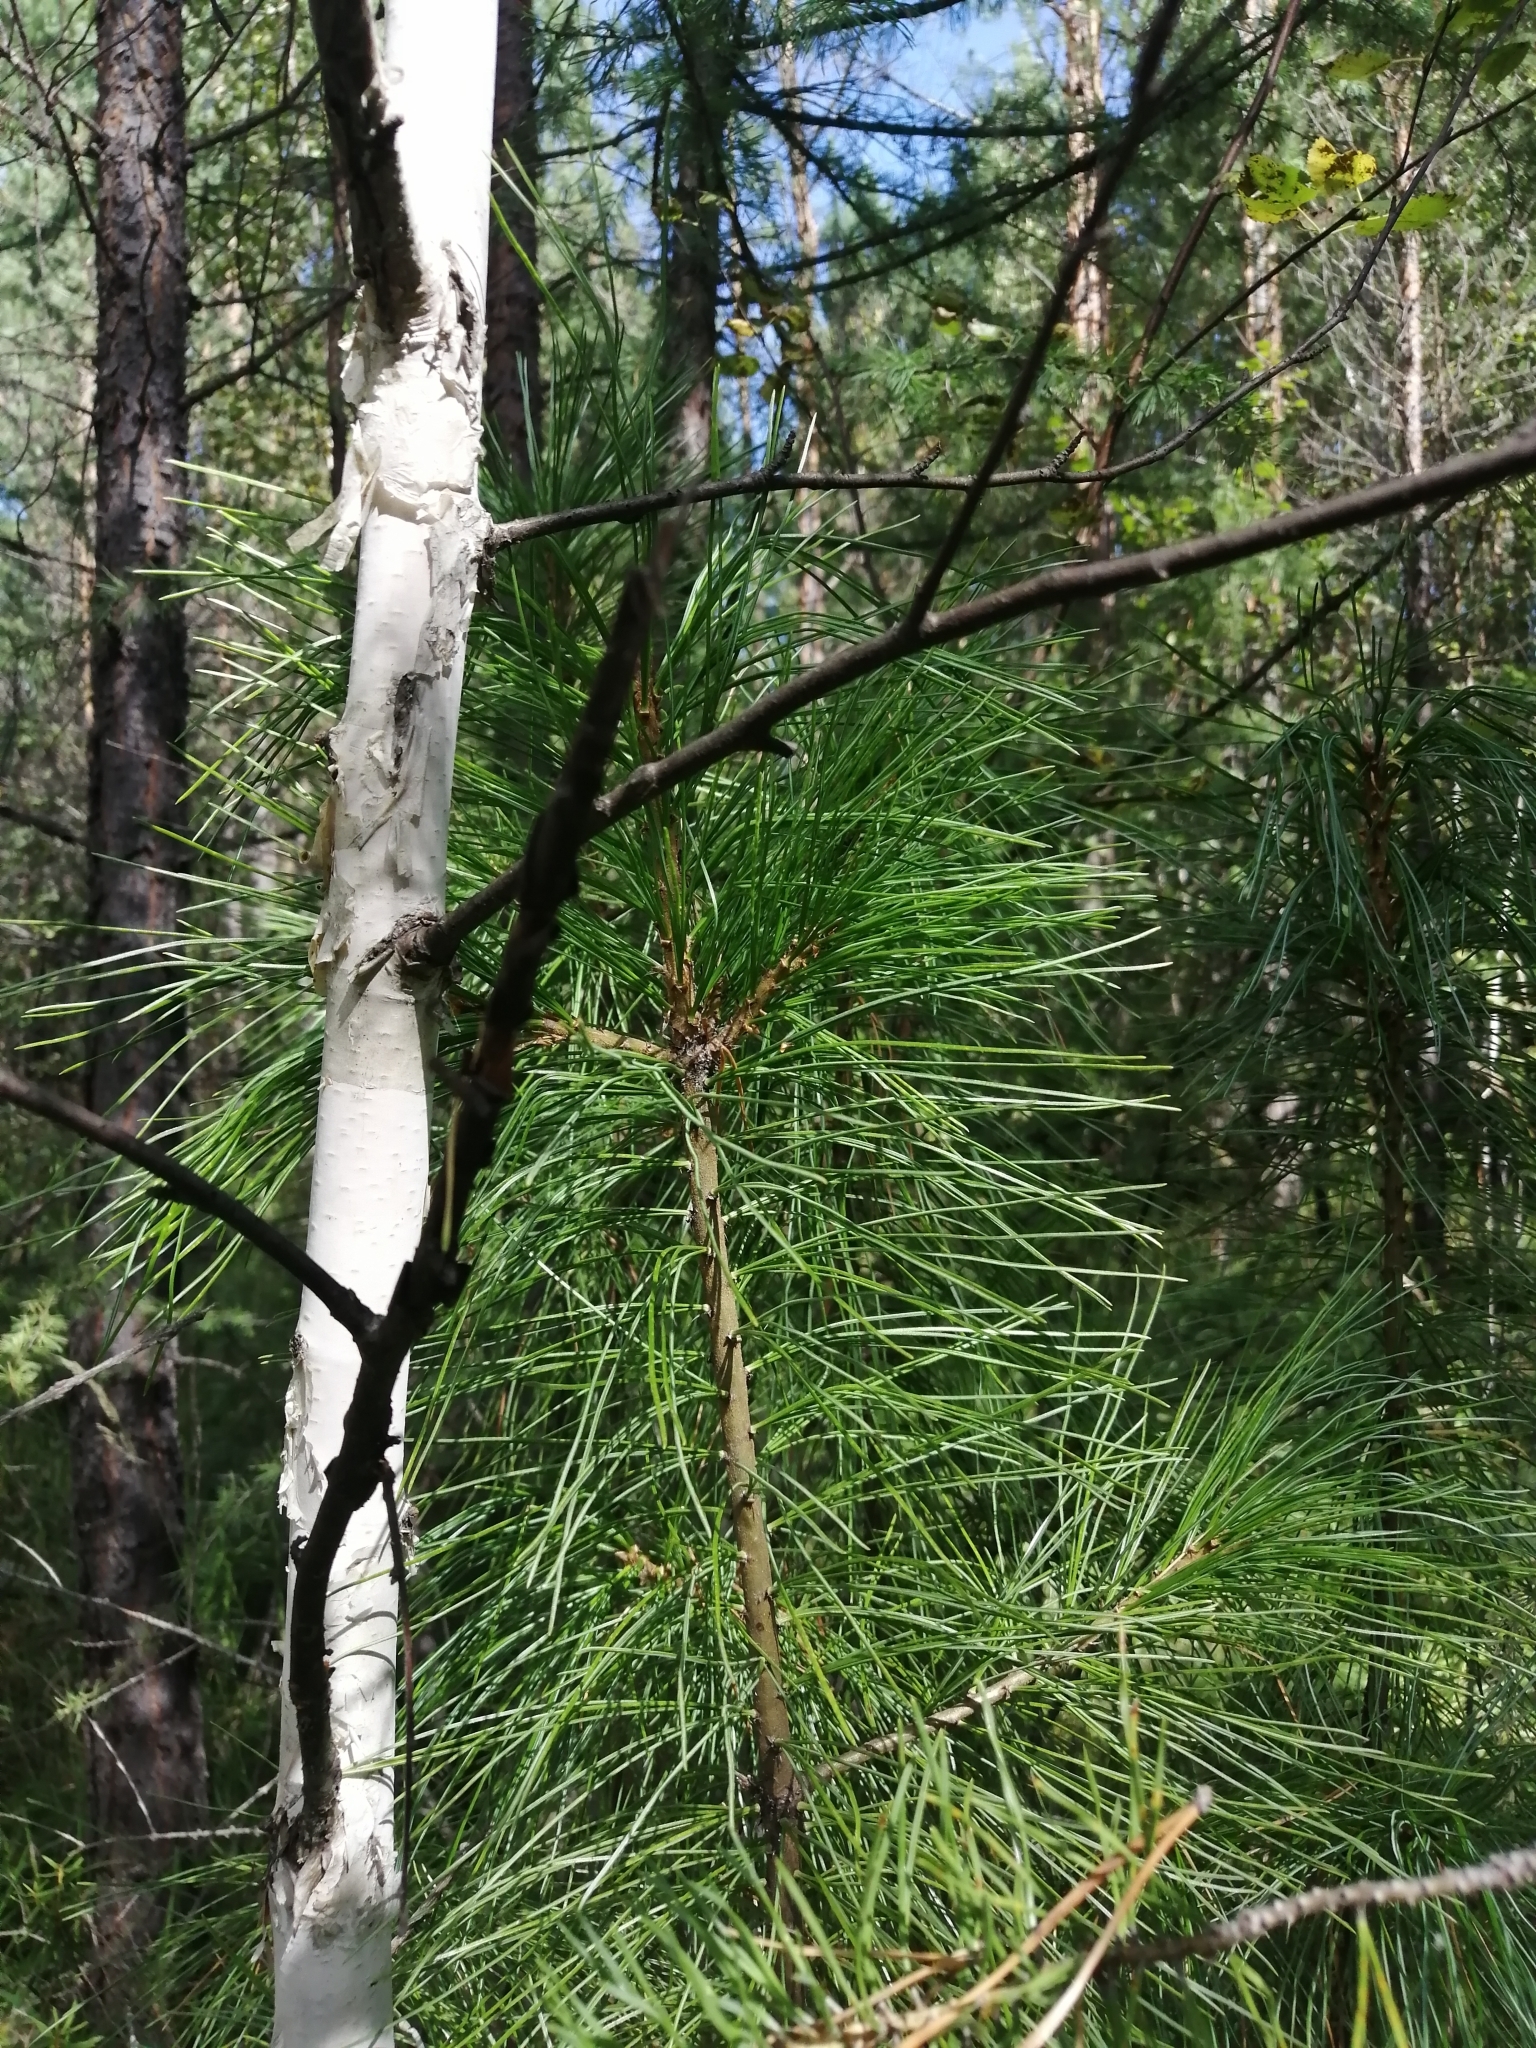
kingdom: Plantae
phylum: Tracheophyta
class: Pinopsida
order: Pinales
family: Pinaceae
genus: Pinus
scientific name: Pinus sibirica
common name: Siberian pine
